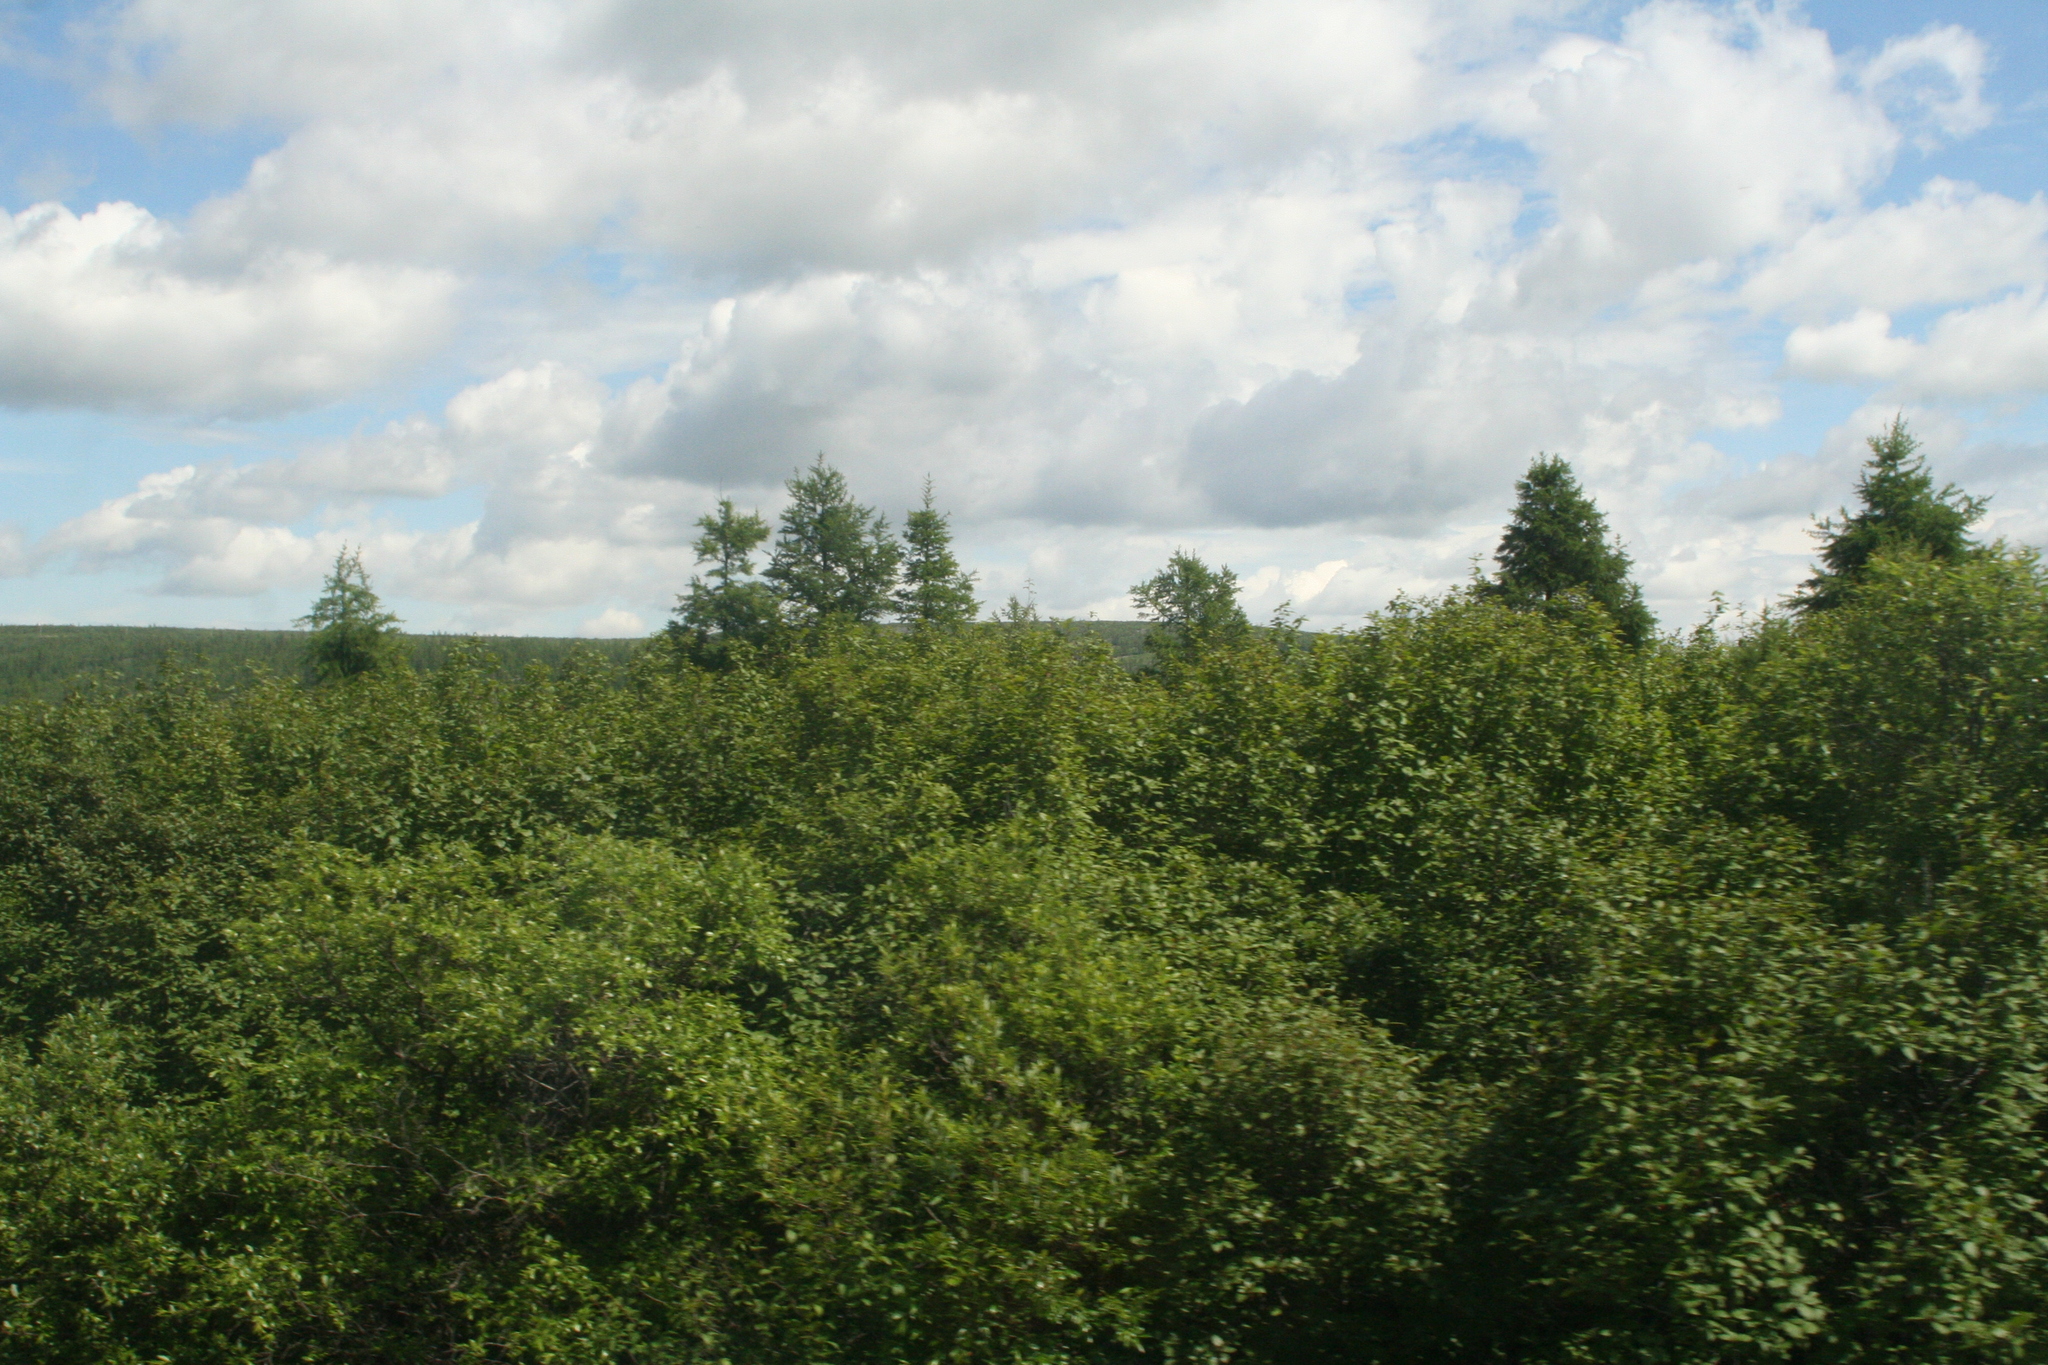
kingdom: Plantae
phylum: Tracheophyta
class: Pinopsida
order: Pinales
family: Pinaceae
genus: Larix
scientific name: Larix gmelinii
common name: Dahurian larch
